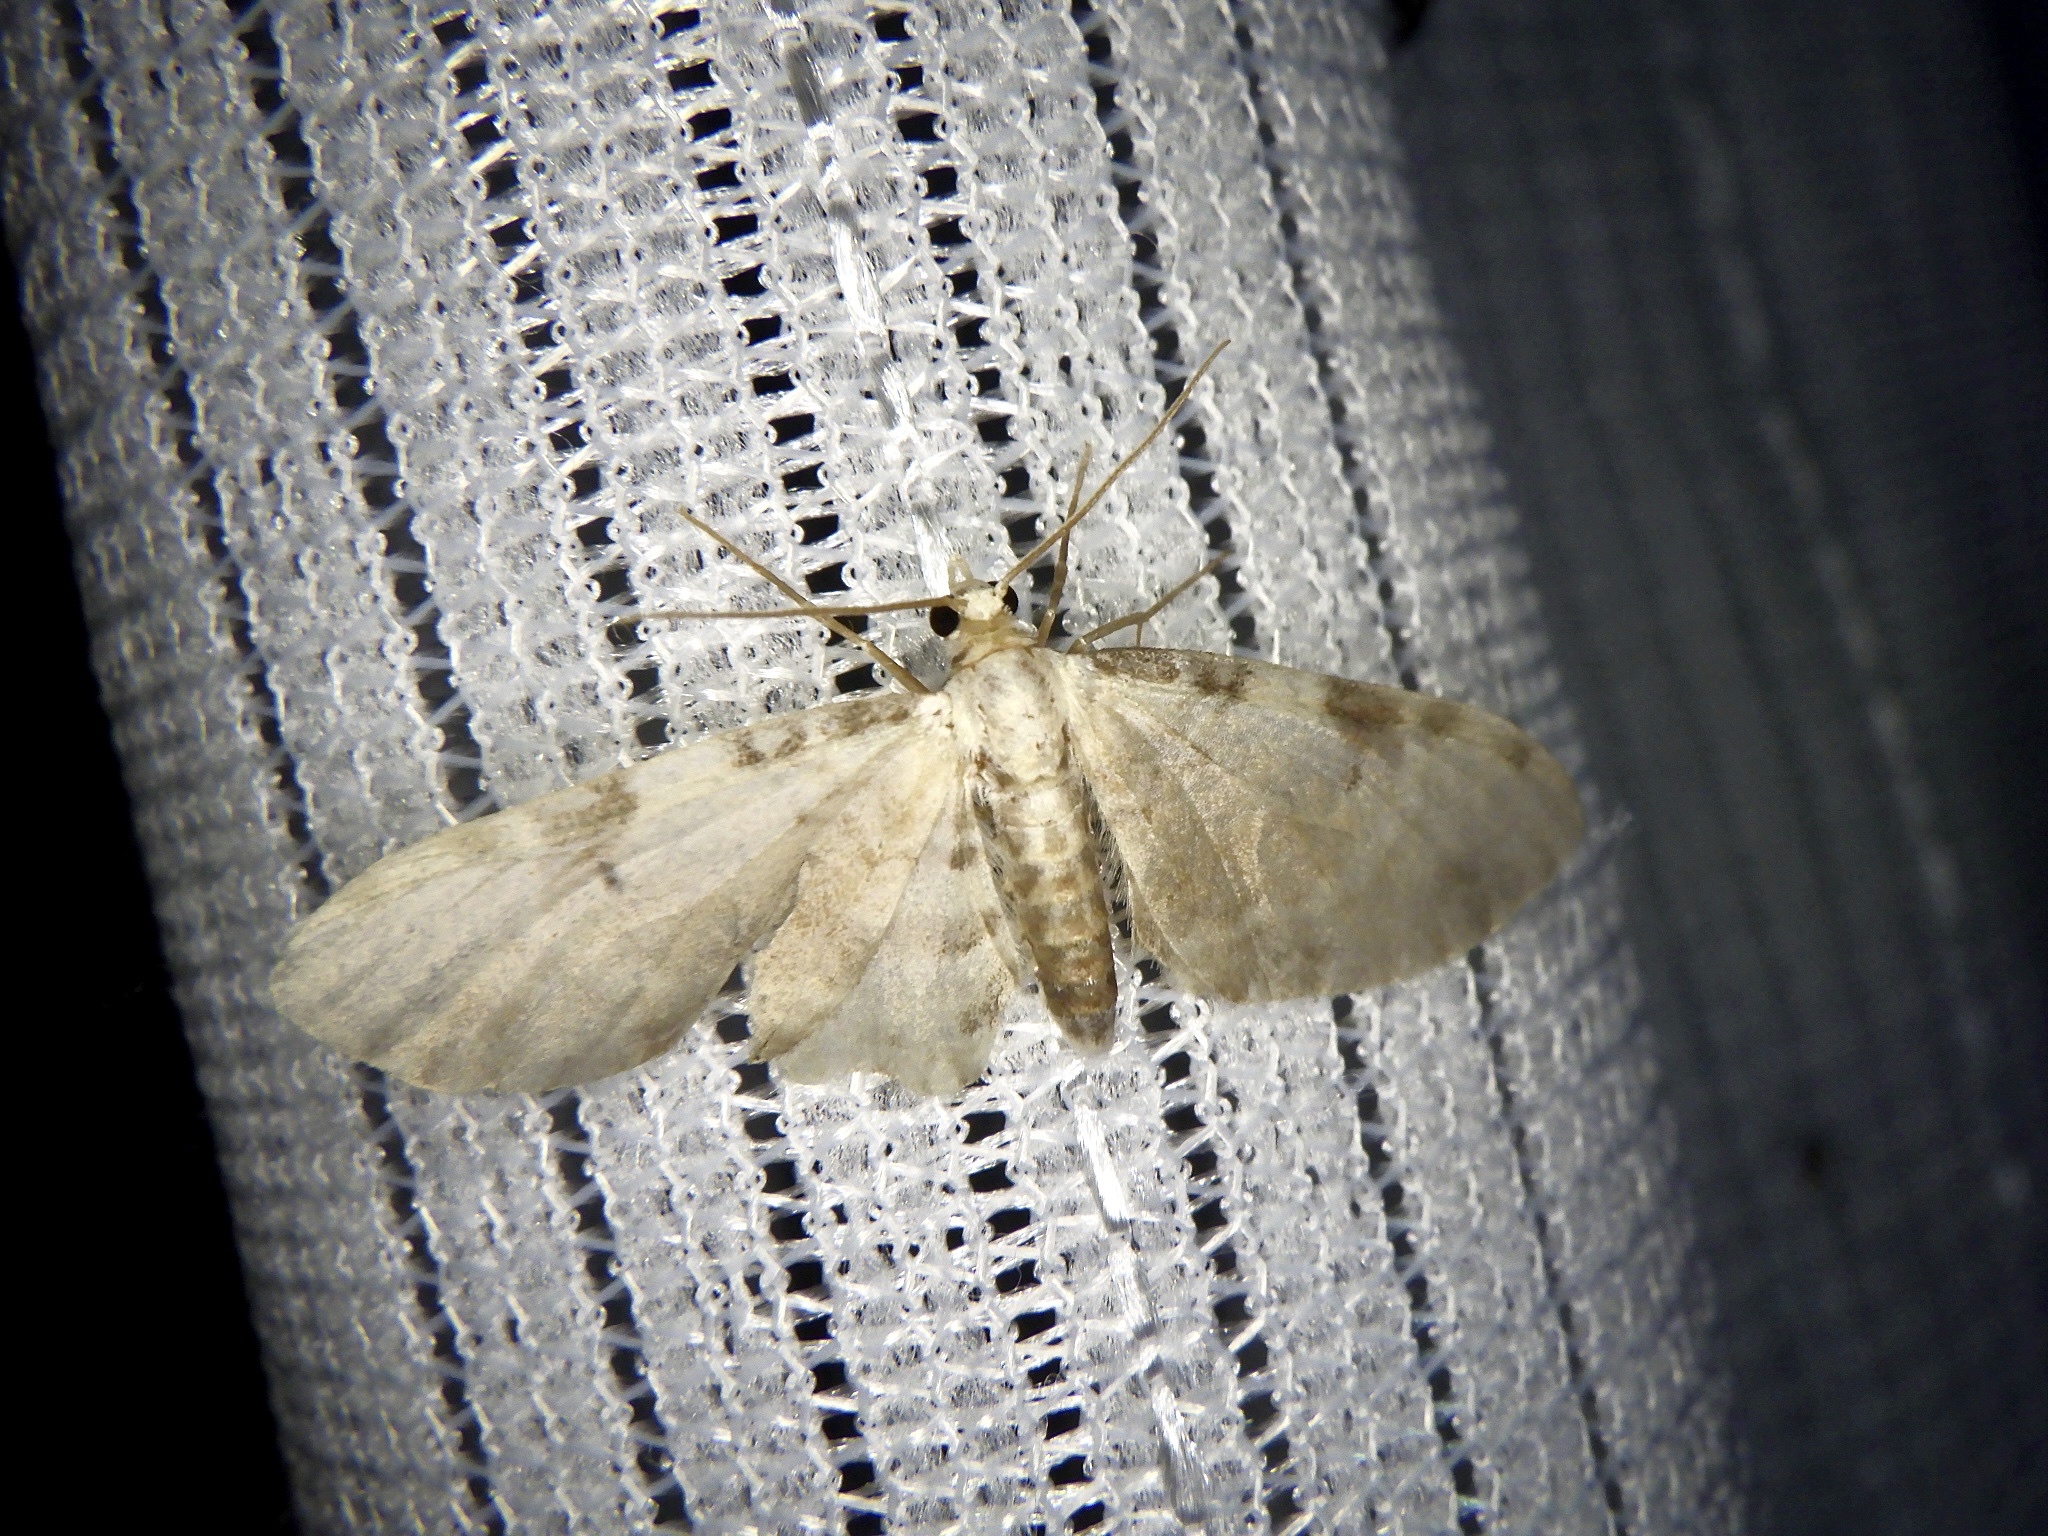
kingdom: Animalia
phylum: Arthropoda
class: Insecta
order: Lepidoptera
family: Geometridae
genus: Brabira
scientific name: Brabira artemidora
